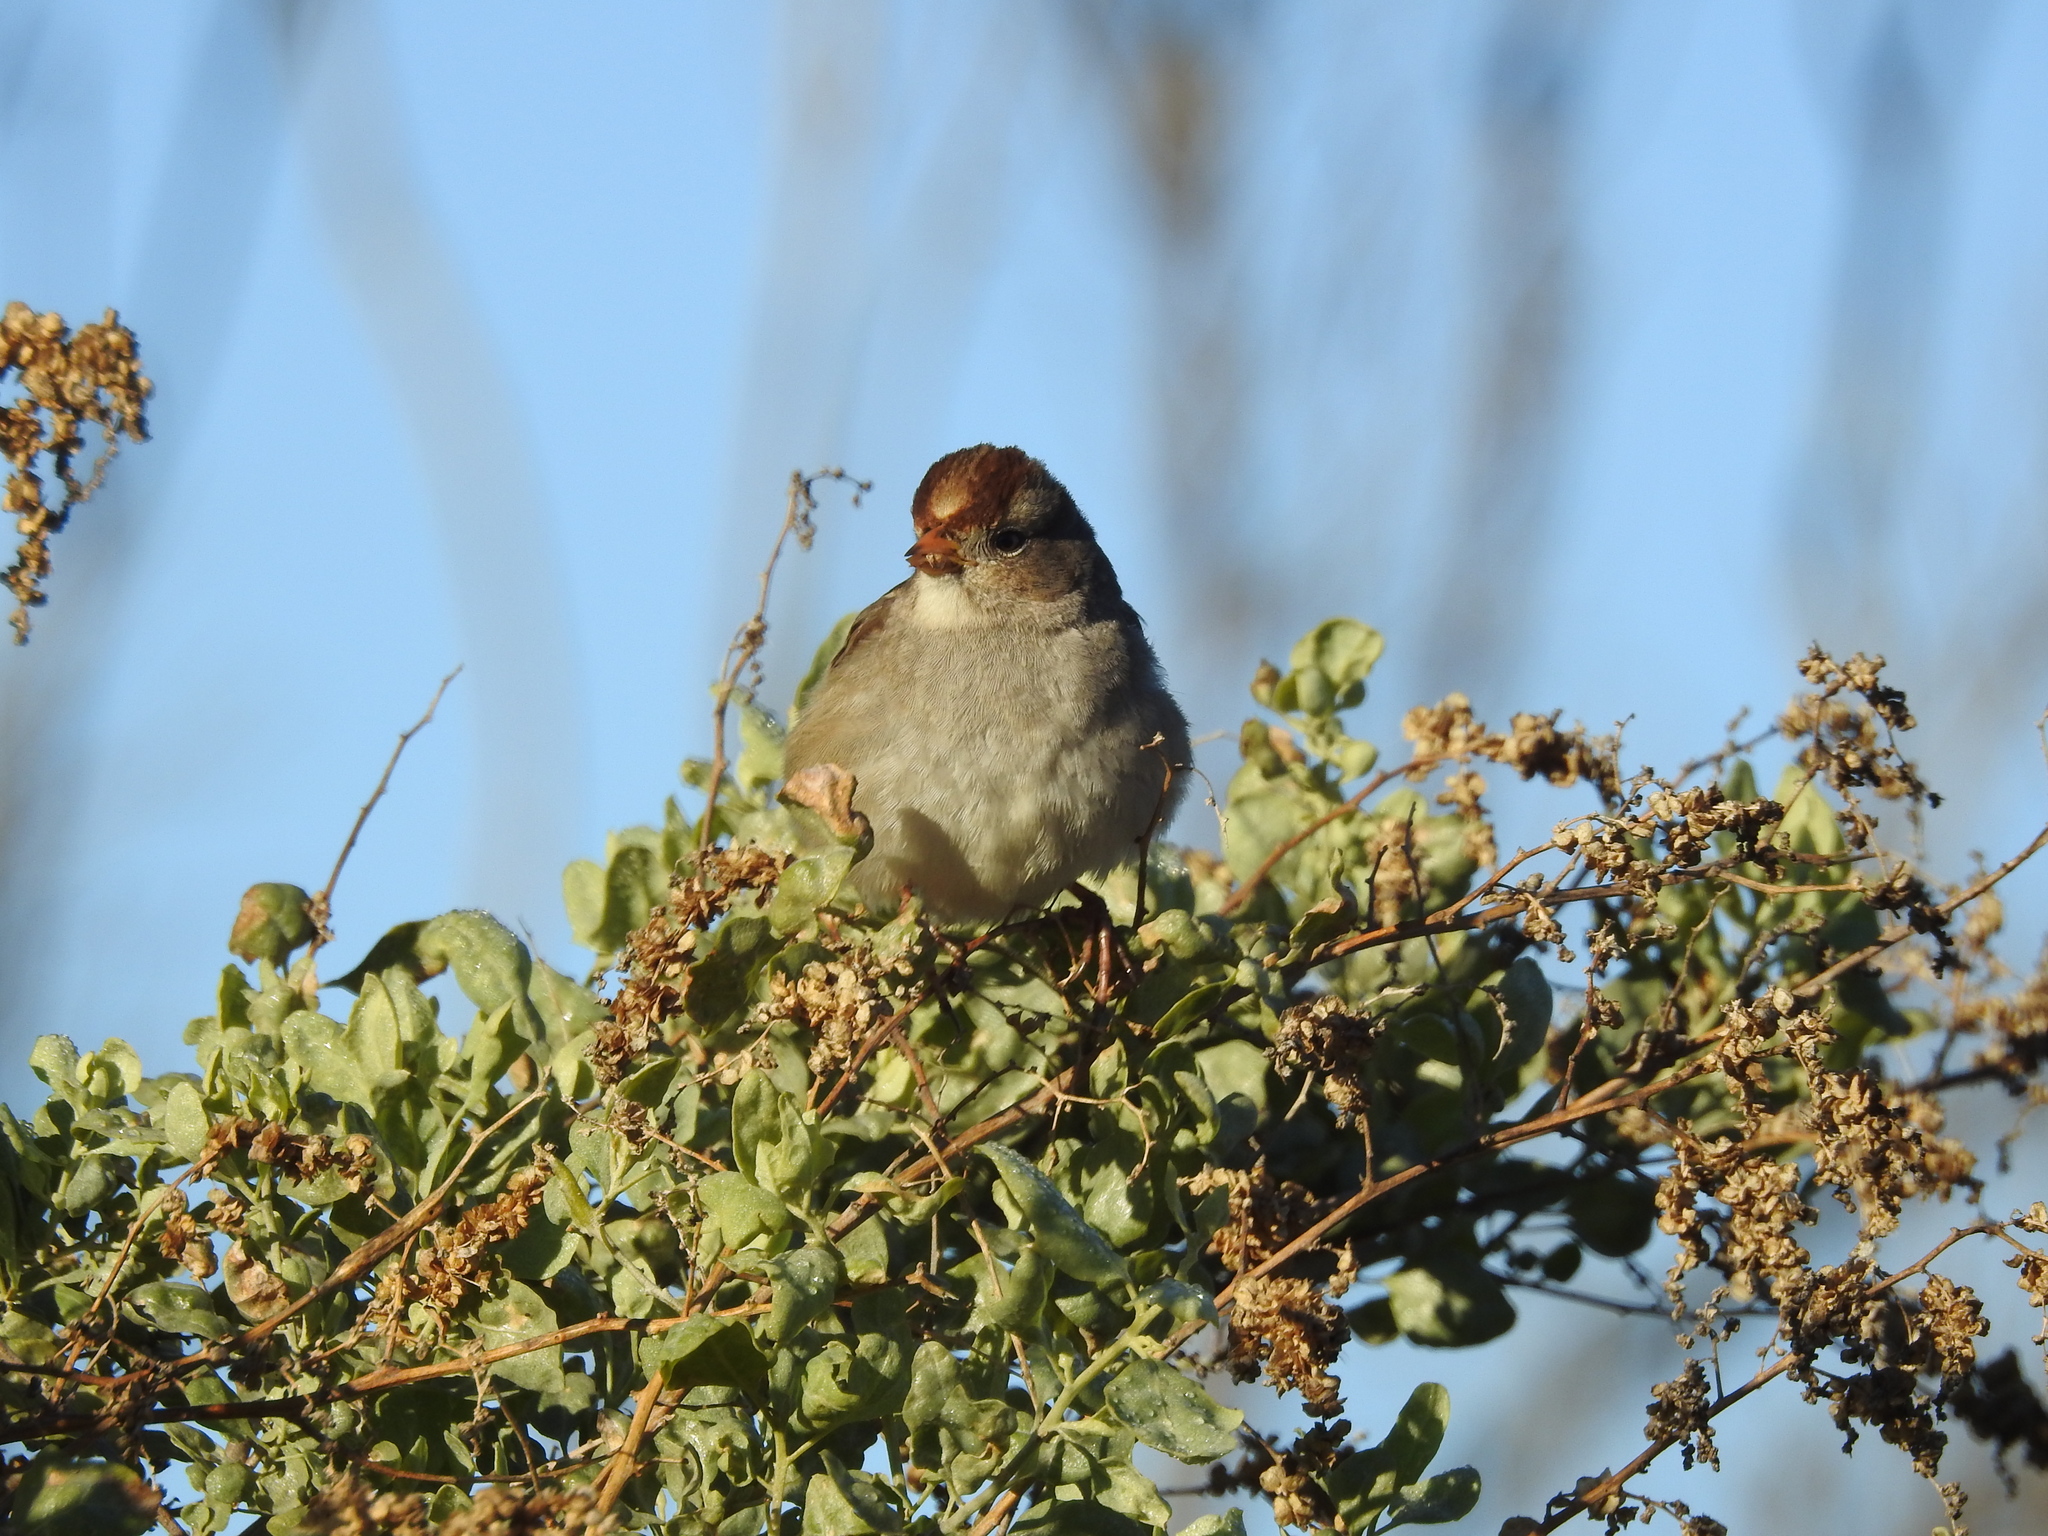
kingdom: Animalia
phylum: Chordata
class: Aves
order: Passeriformes
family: Passerellidae
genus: Zonotrichia
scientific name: Zonotrichia leucophrys
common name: White-crowned sparrow
